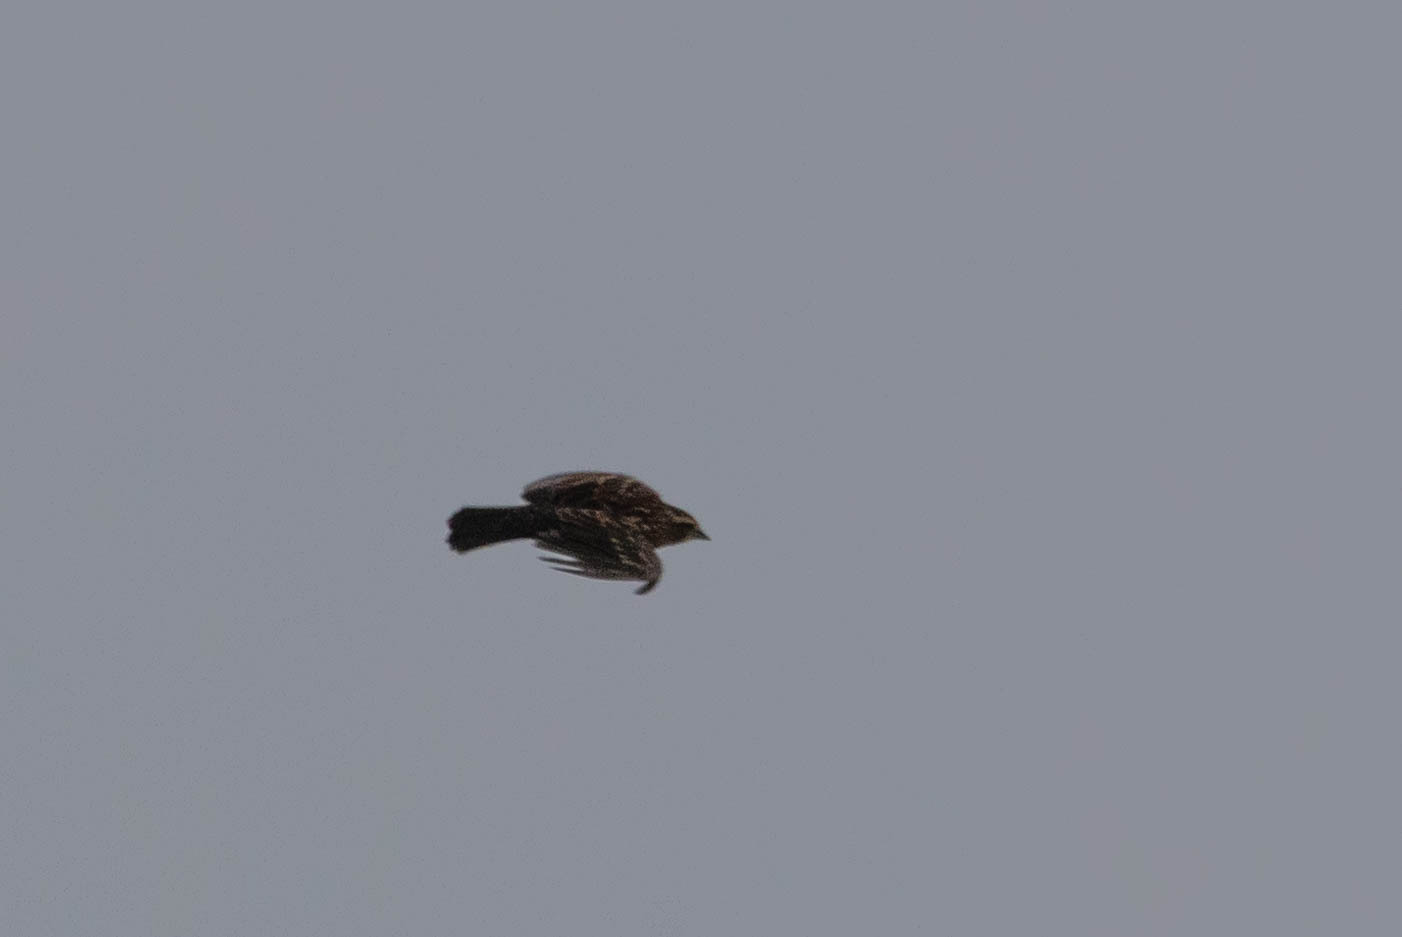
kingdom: Animalia
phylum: Chordata
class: Aves
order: Passeriformes
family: Icteridae
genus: Agelaius
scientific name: Agelaius phoeniceus
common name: Red-winged blackbird
